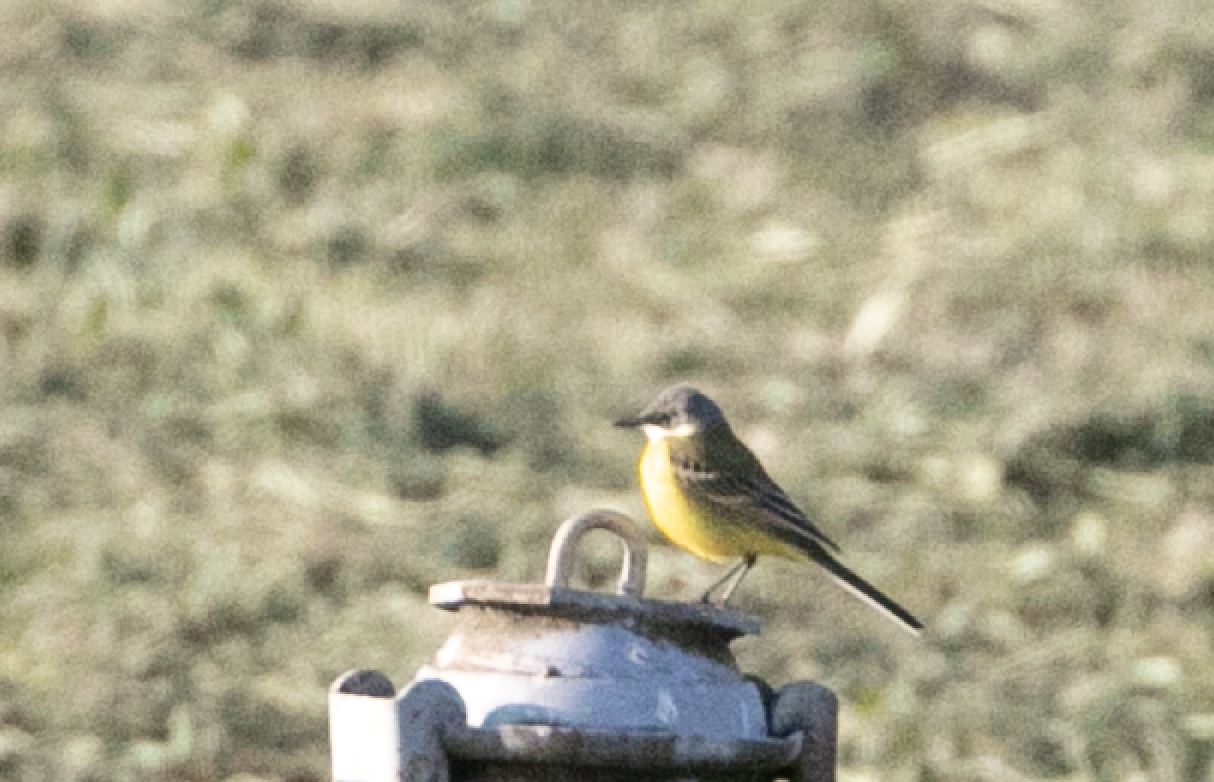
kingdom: Animalia
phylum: Chordata
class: Aves
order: Passeriformes
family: Motacillidae
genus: Motacilla
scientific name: Motacilla flava
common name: Western yellow wagtail
